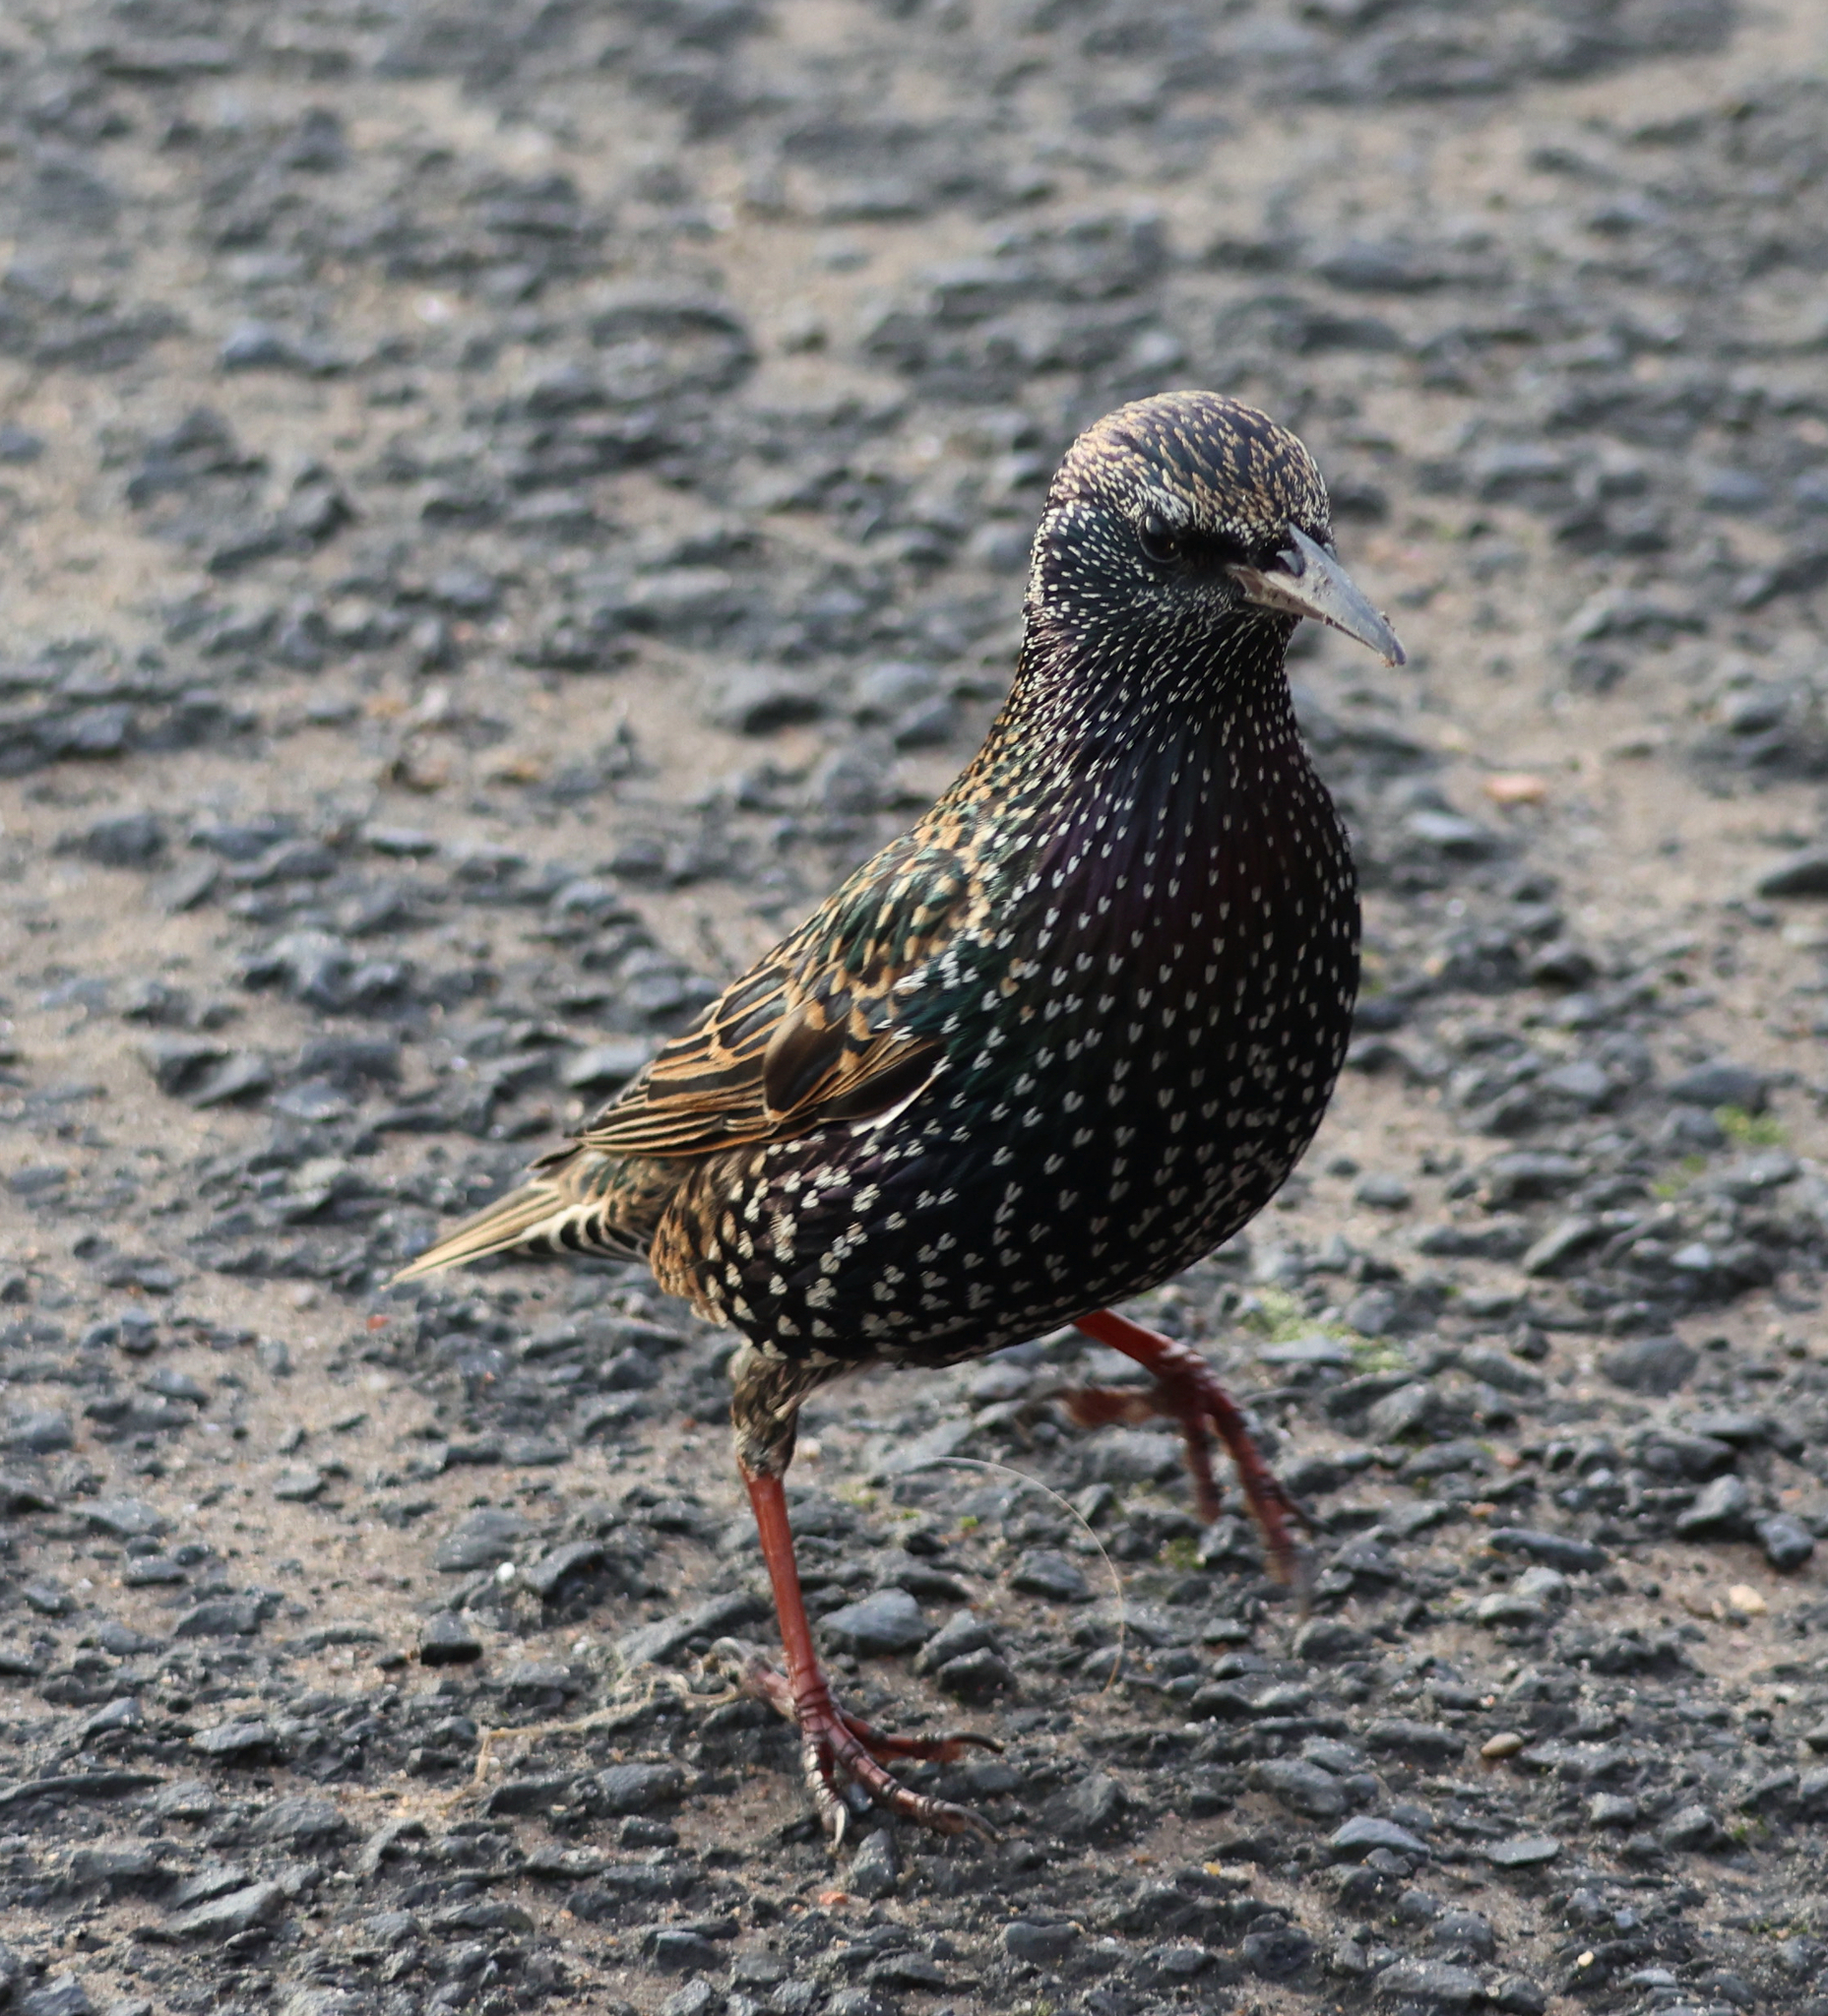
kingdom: Animalia
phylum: Chordata
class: Aves
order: Passeriformes
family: Sturnidae
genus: Sturnus
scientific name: Sturnus vulgaris
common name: Common starling
